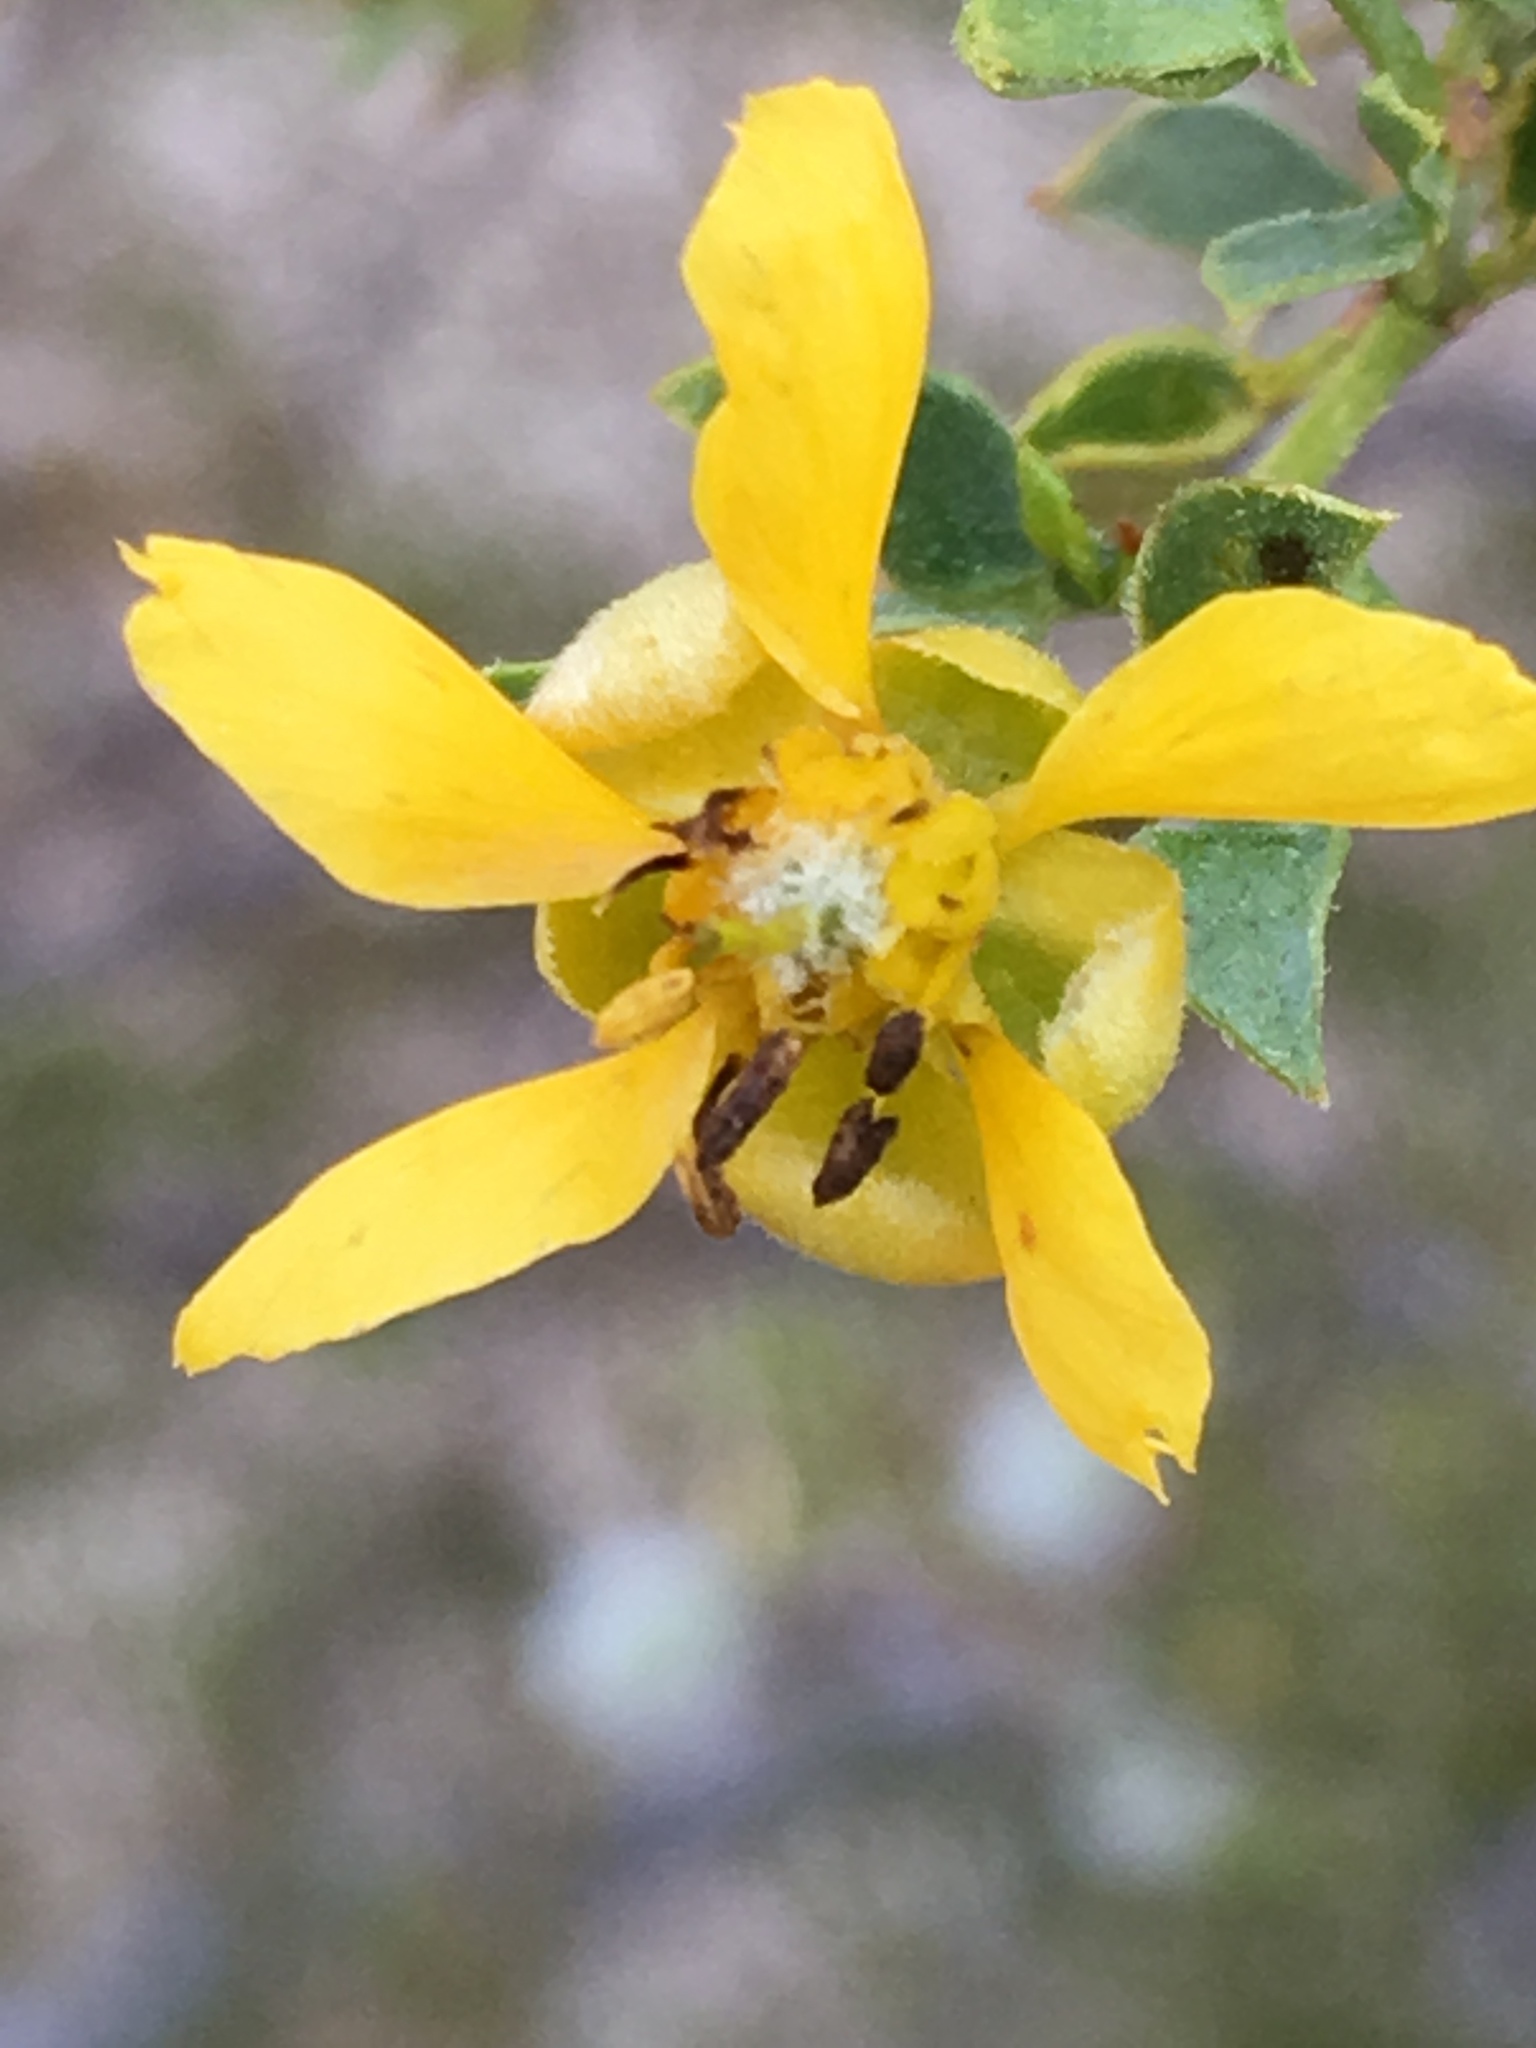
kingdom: Plantae
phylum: Tracheophyta
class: Magnoliopsida
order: Zygophyllales
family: Zygophyllaceae
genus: Larrea
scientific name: Larrea tridentata
